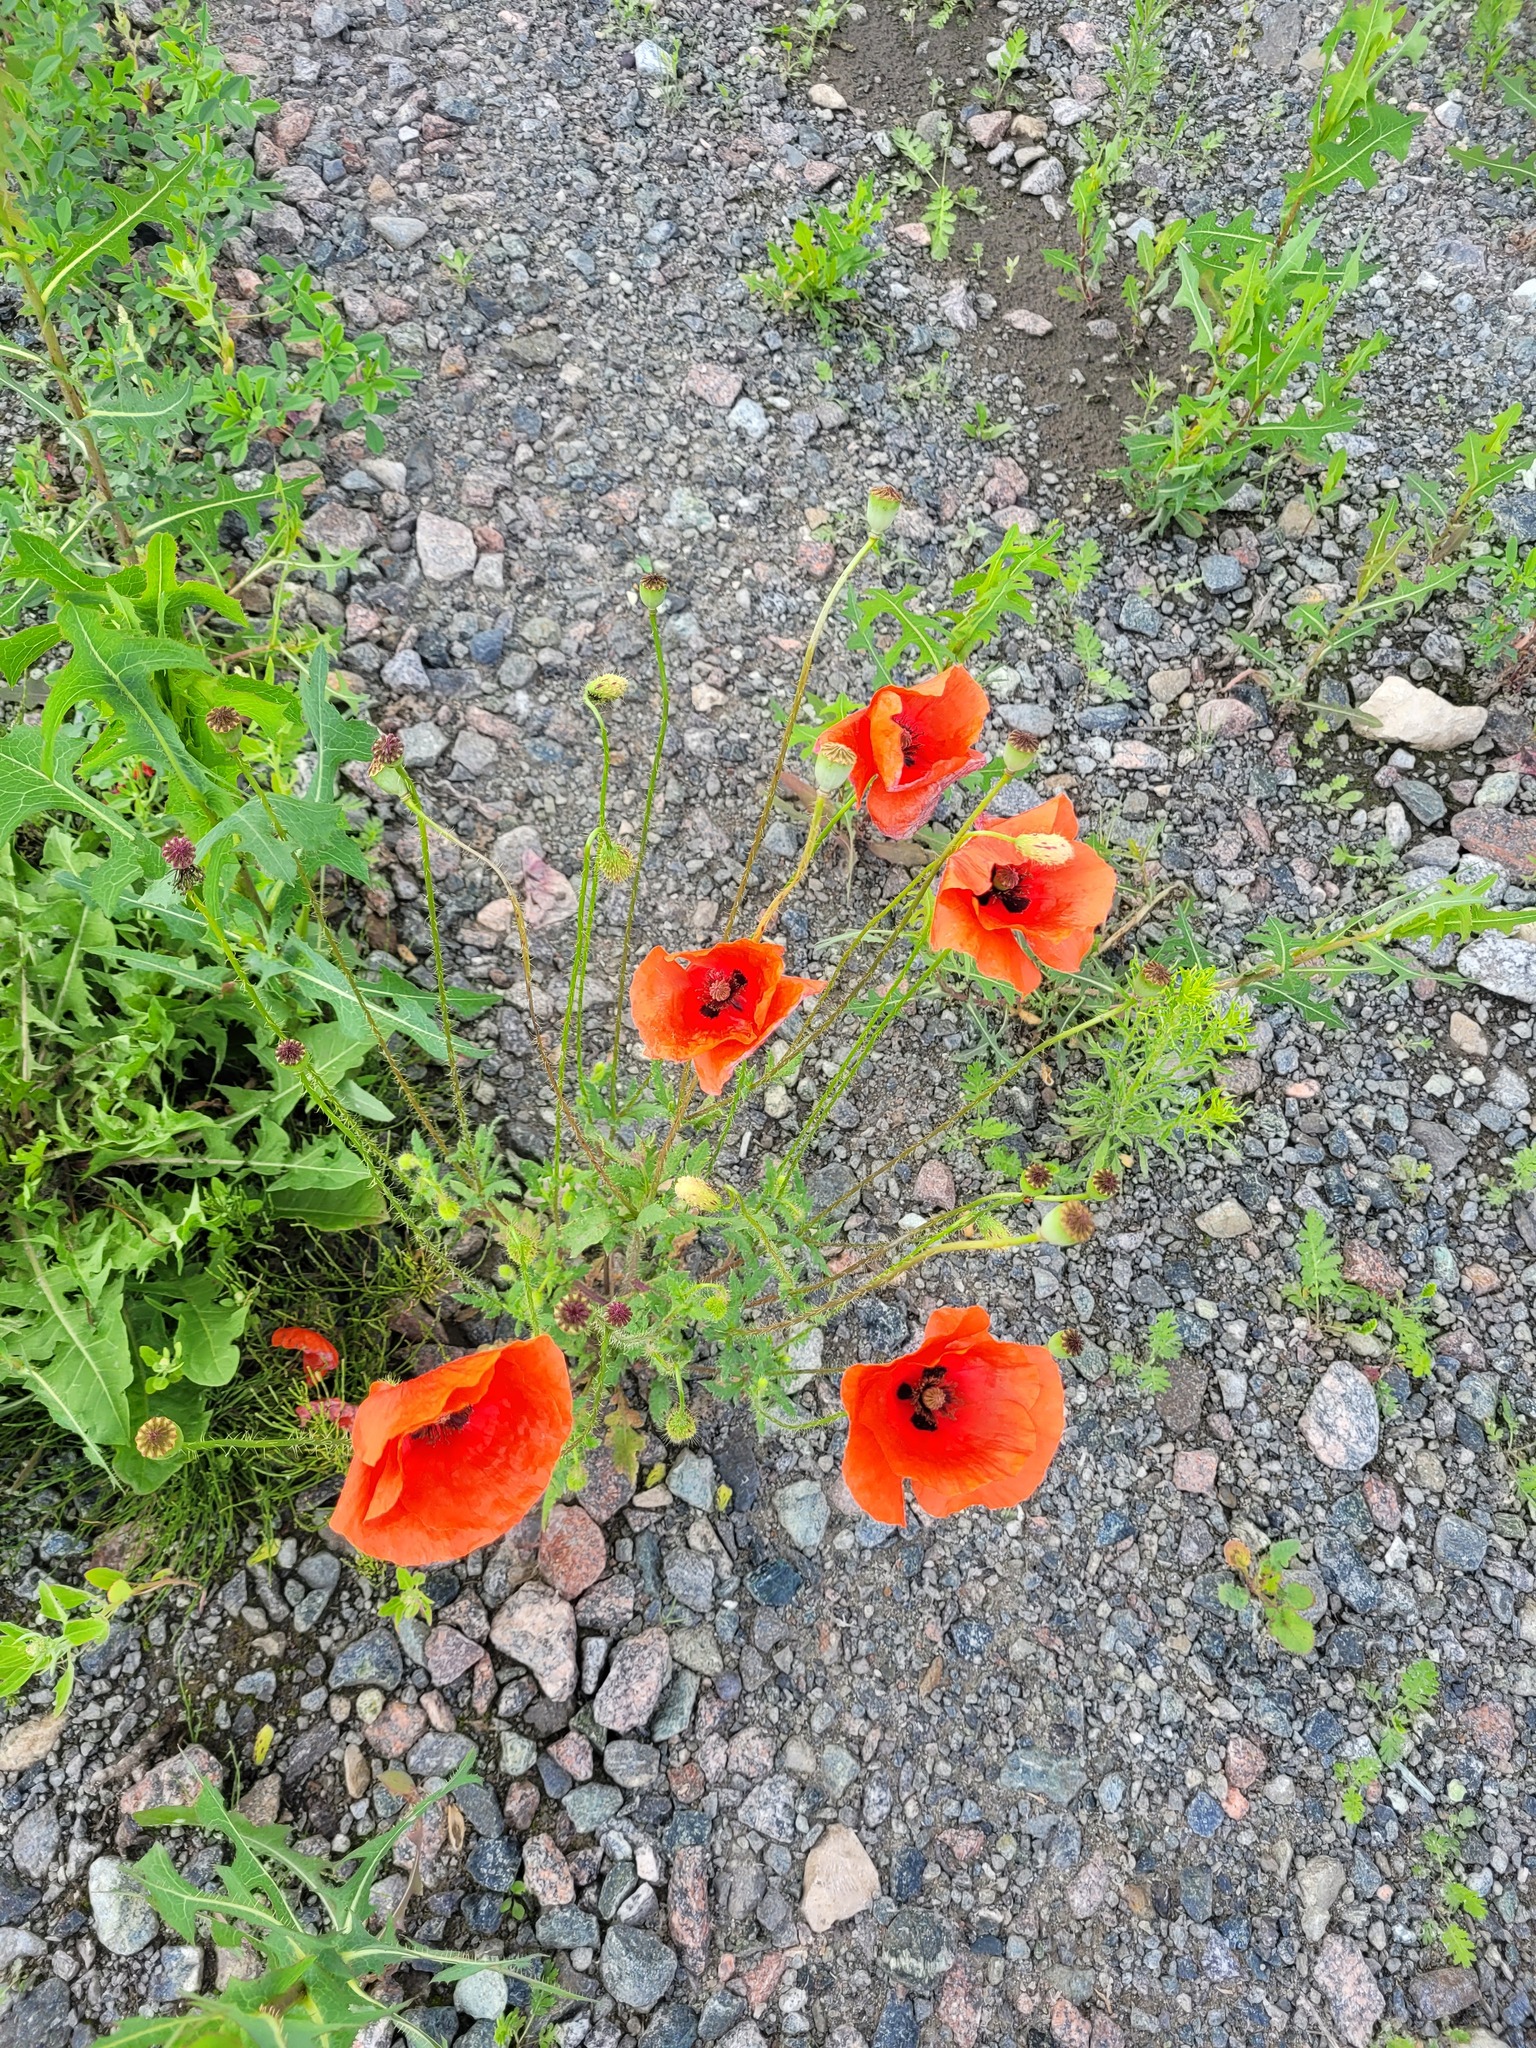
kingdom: Plantae
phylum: Tracheophyta
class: Magnoliopsida
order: Ranunculales
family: Papaveraceae
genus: Papaver
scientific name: Papaver rhoeas
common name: Corn poppy
